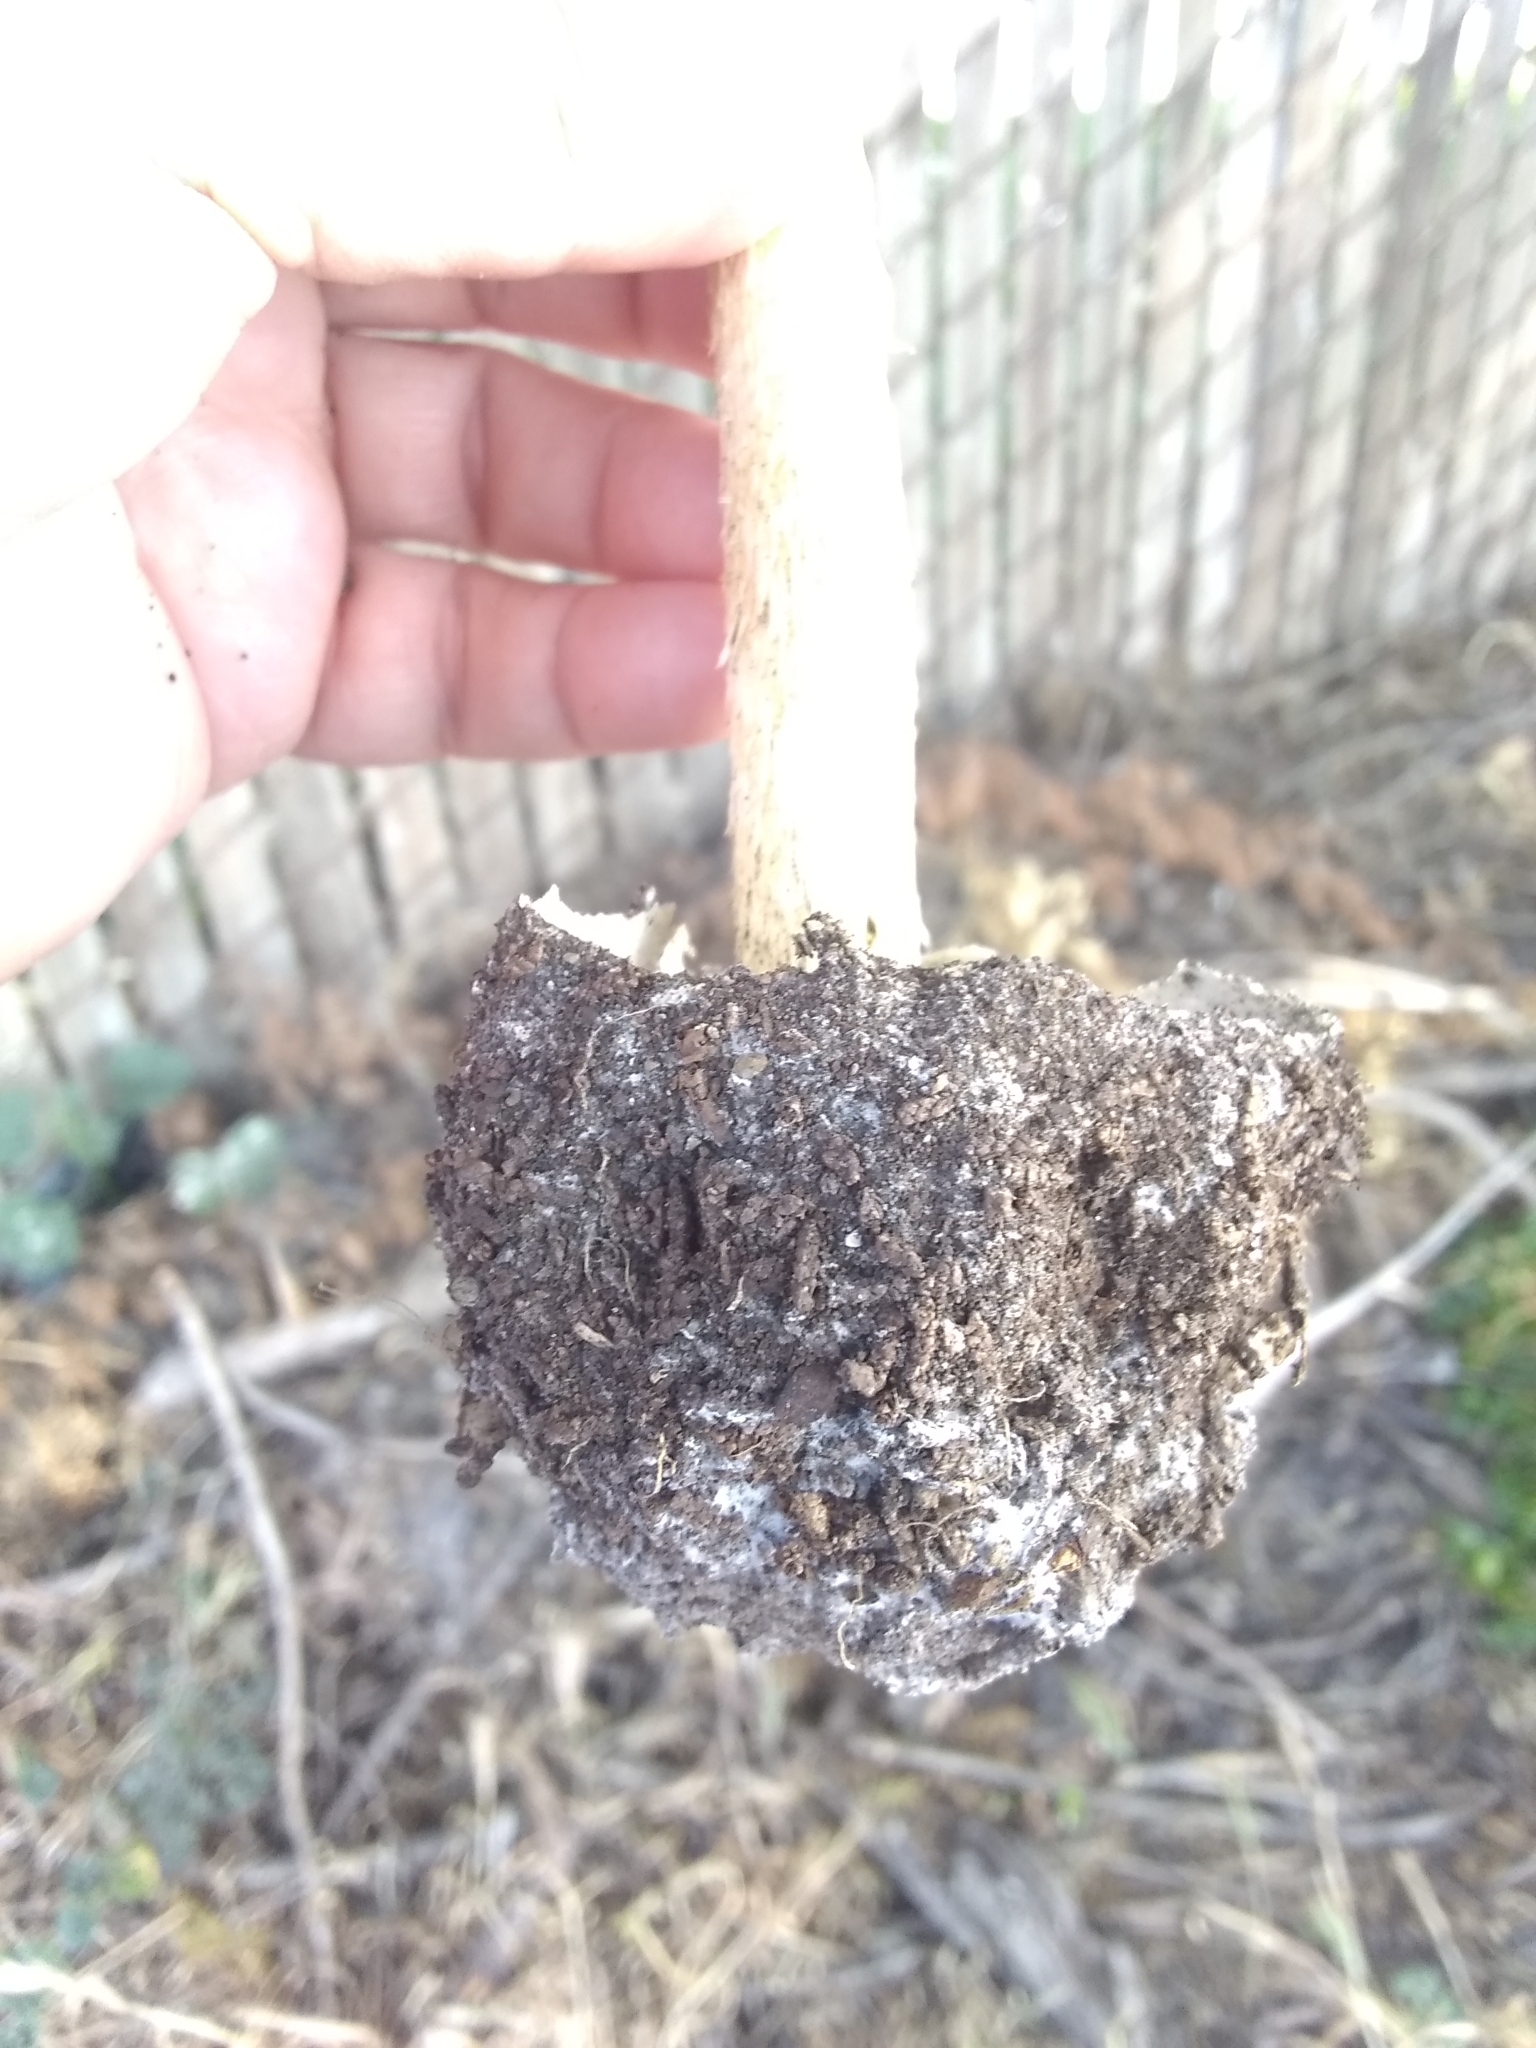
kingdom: Fungi
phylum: Basidiomycota
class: Agaricomycetes
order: Agaricales
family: Agaricaceae
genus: Battarrea
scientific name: Battarrea phalloides
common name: Sandy stiltball
